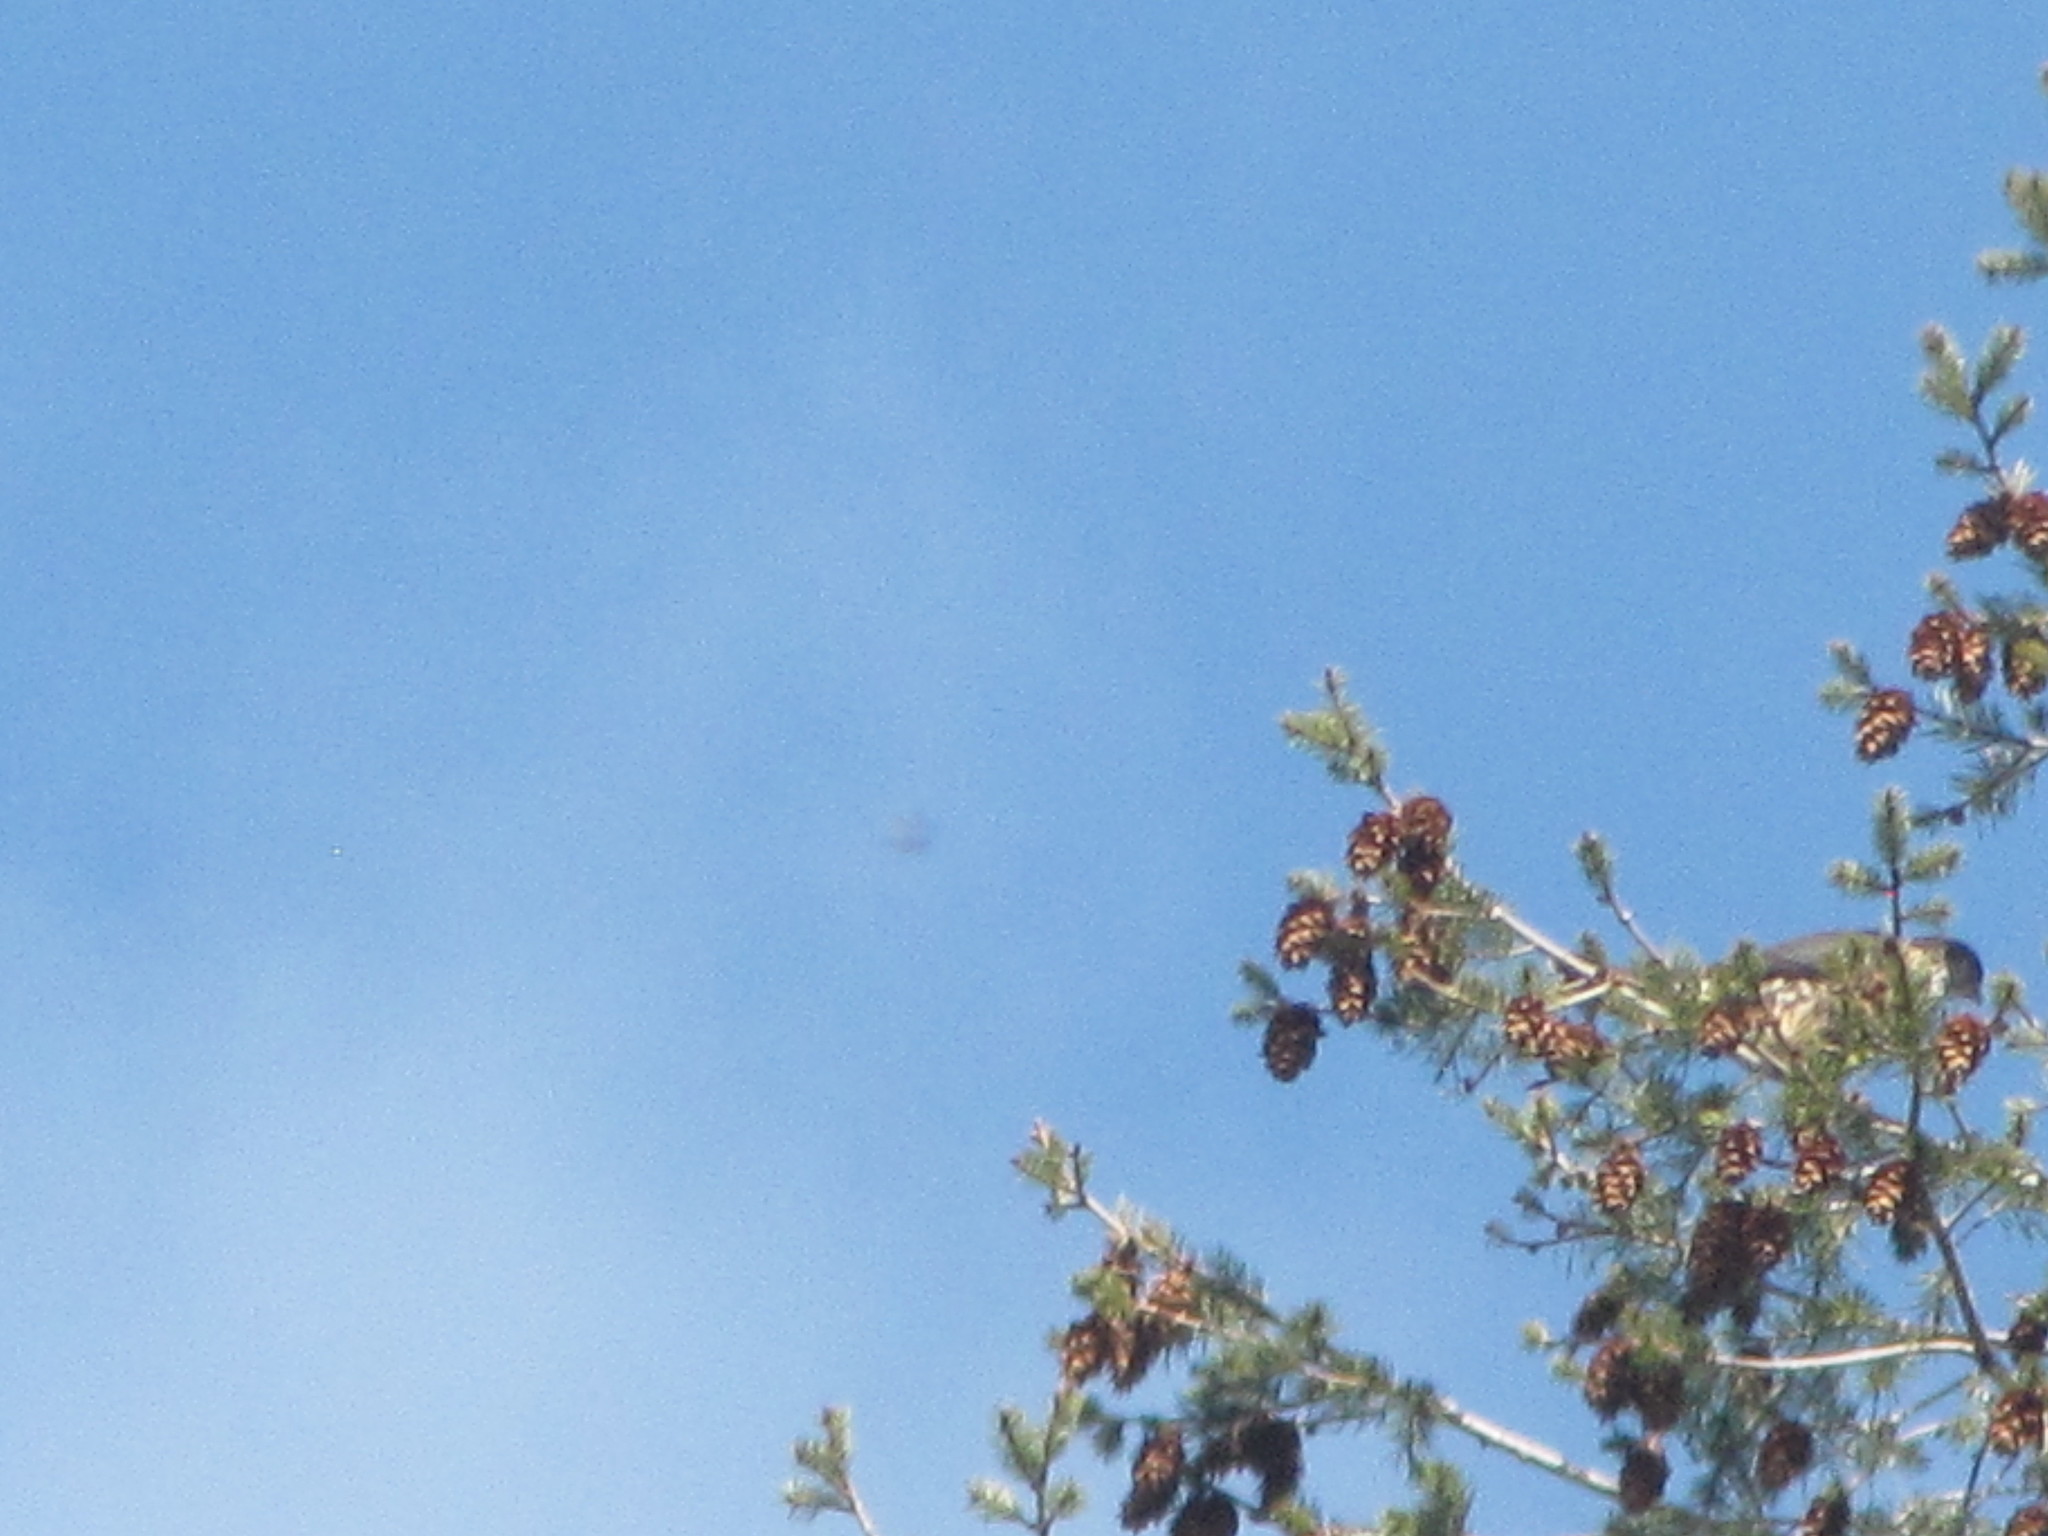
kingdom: Animalia
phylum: Chordata
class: Aves
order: Falconiformes
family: Falconidae
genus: Falco
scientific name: Falco columbarius
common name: Merlin
